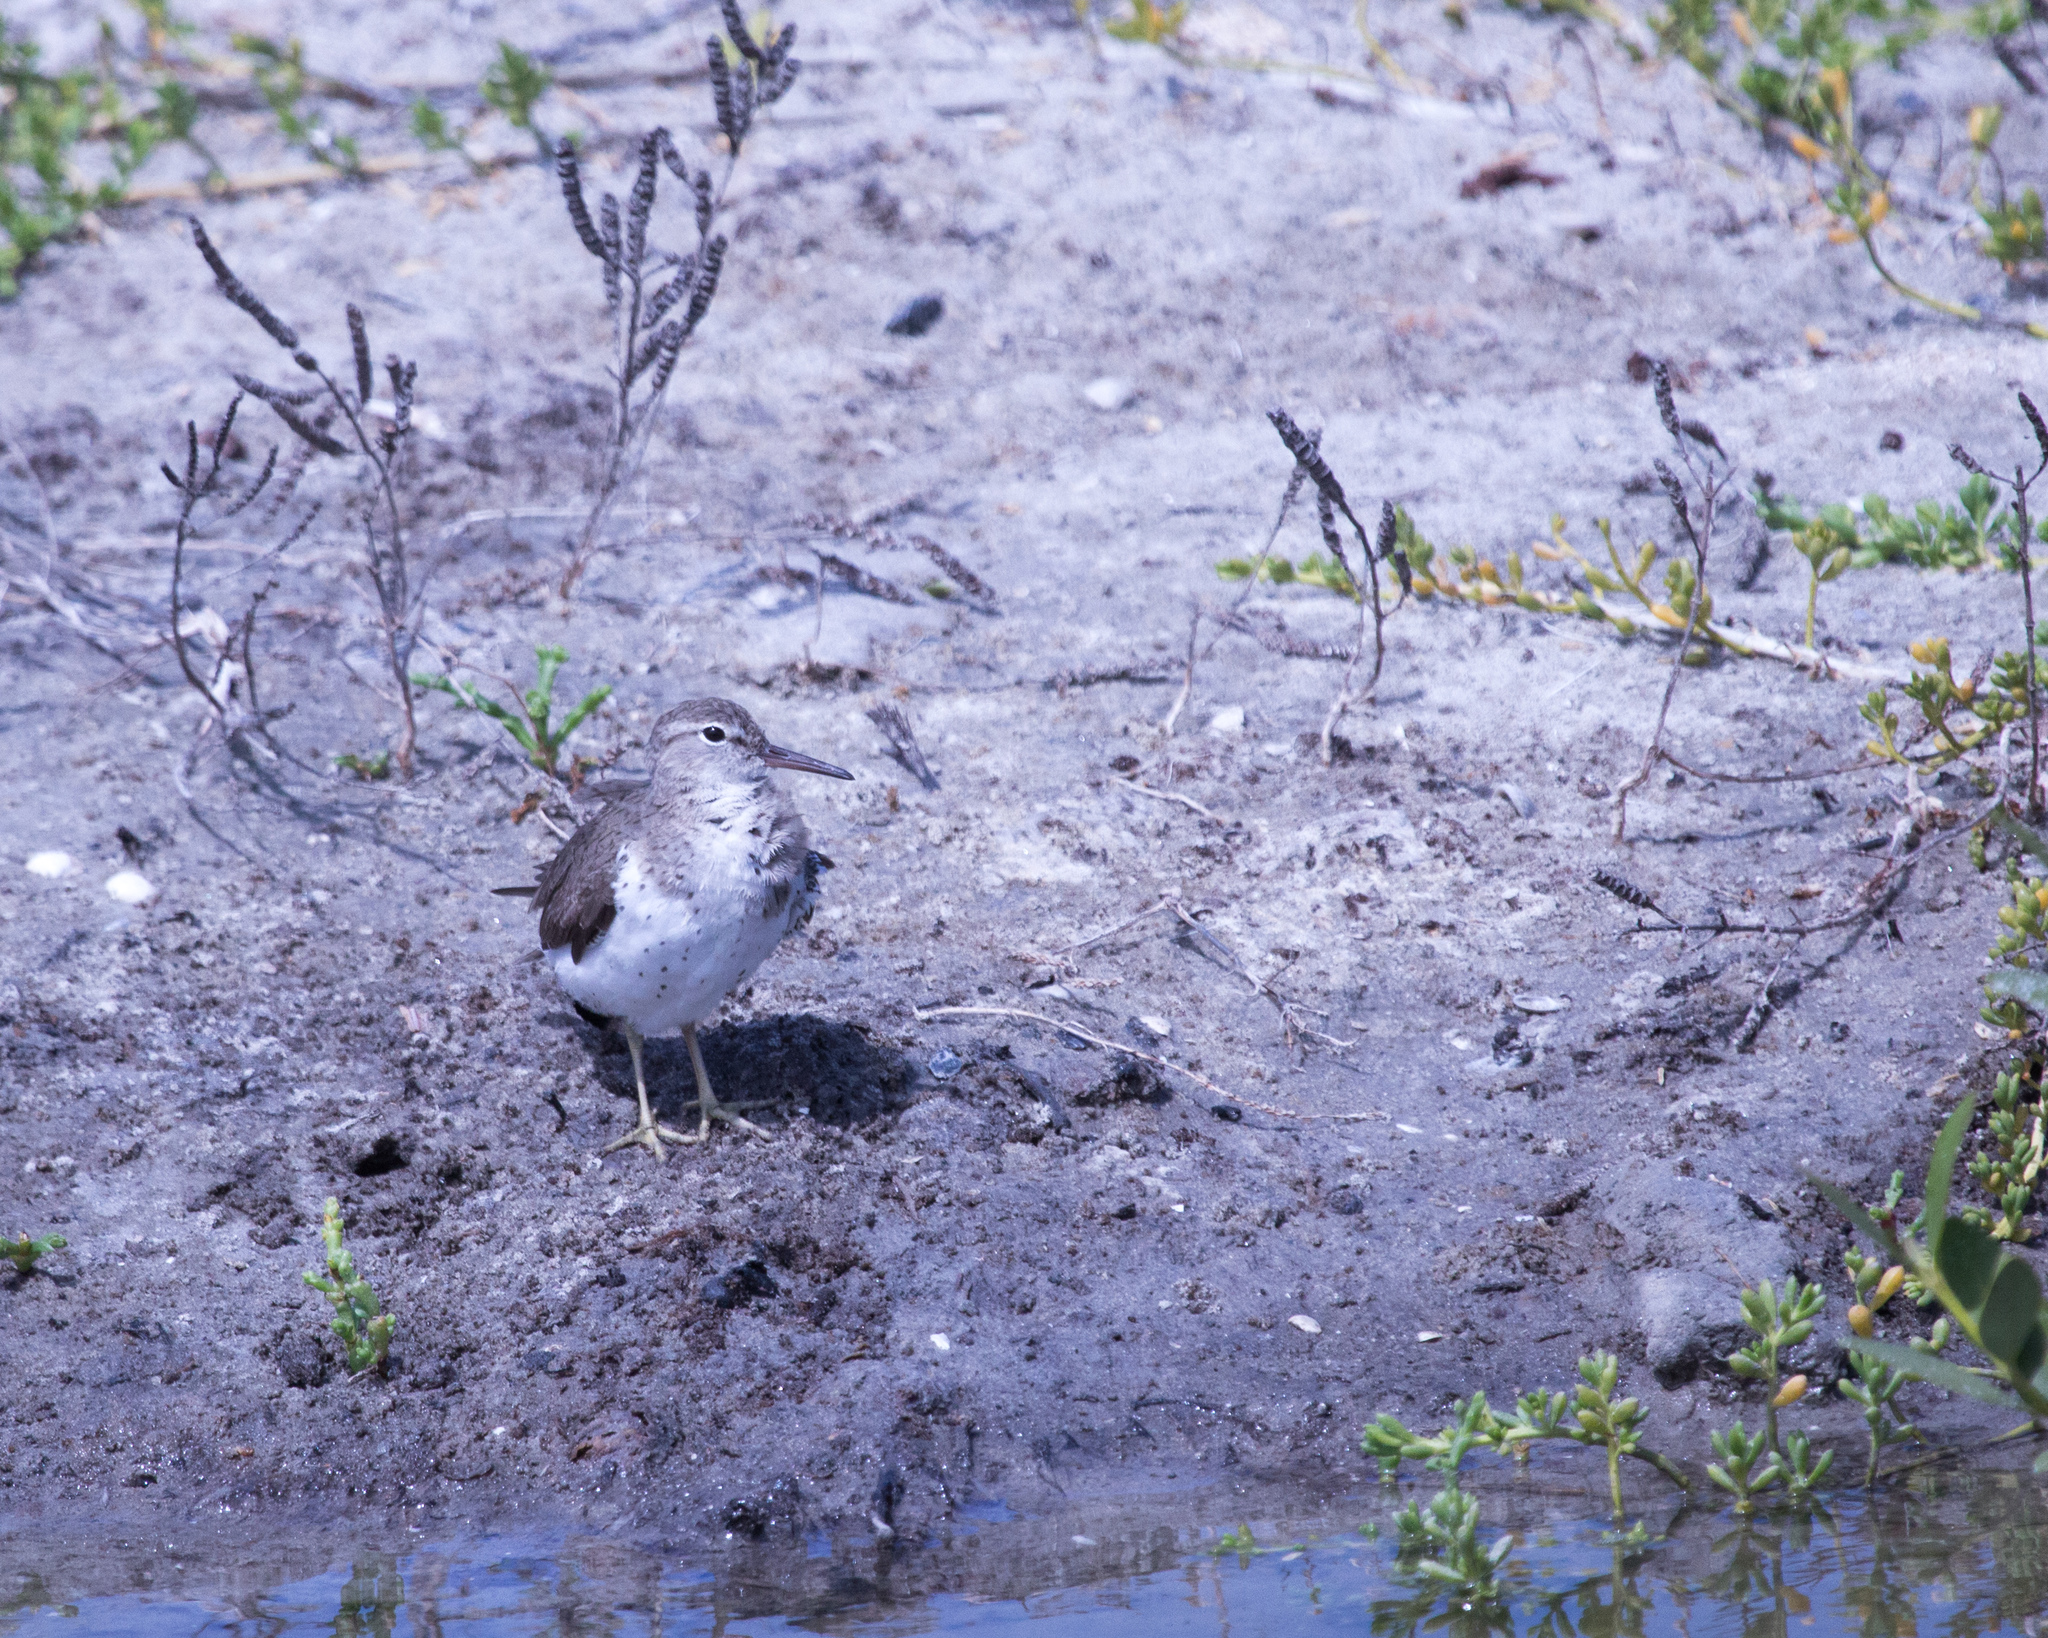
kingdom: Animalia
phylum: Chordata
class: Aves
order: Charadriiformes
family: Scolopacidae
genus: Actitis
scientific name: Actitis macularius
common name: Spotted sandpiper
